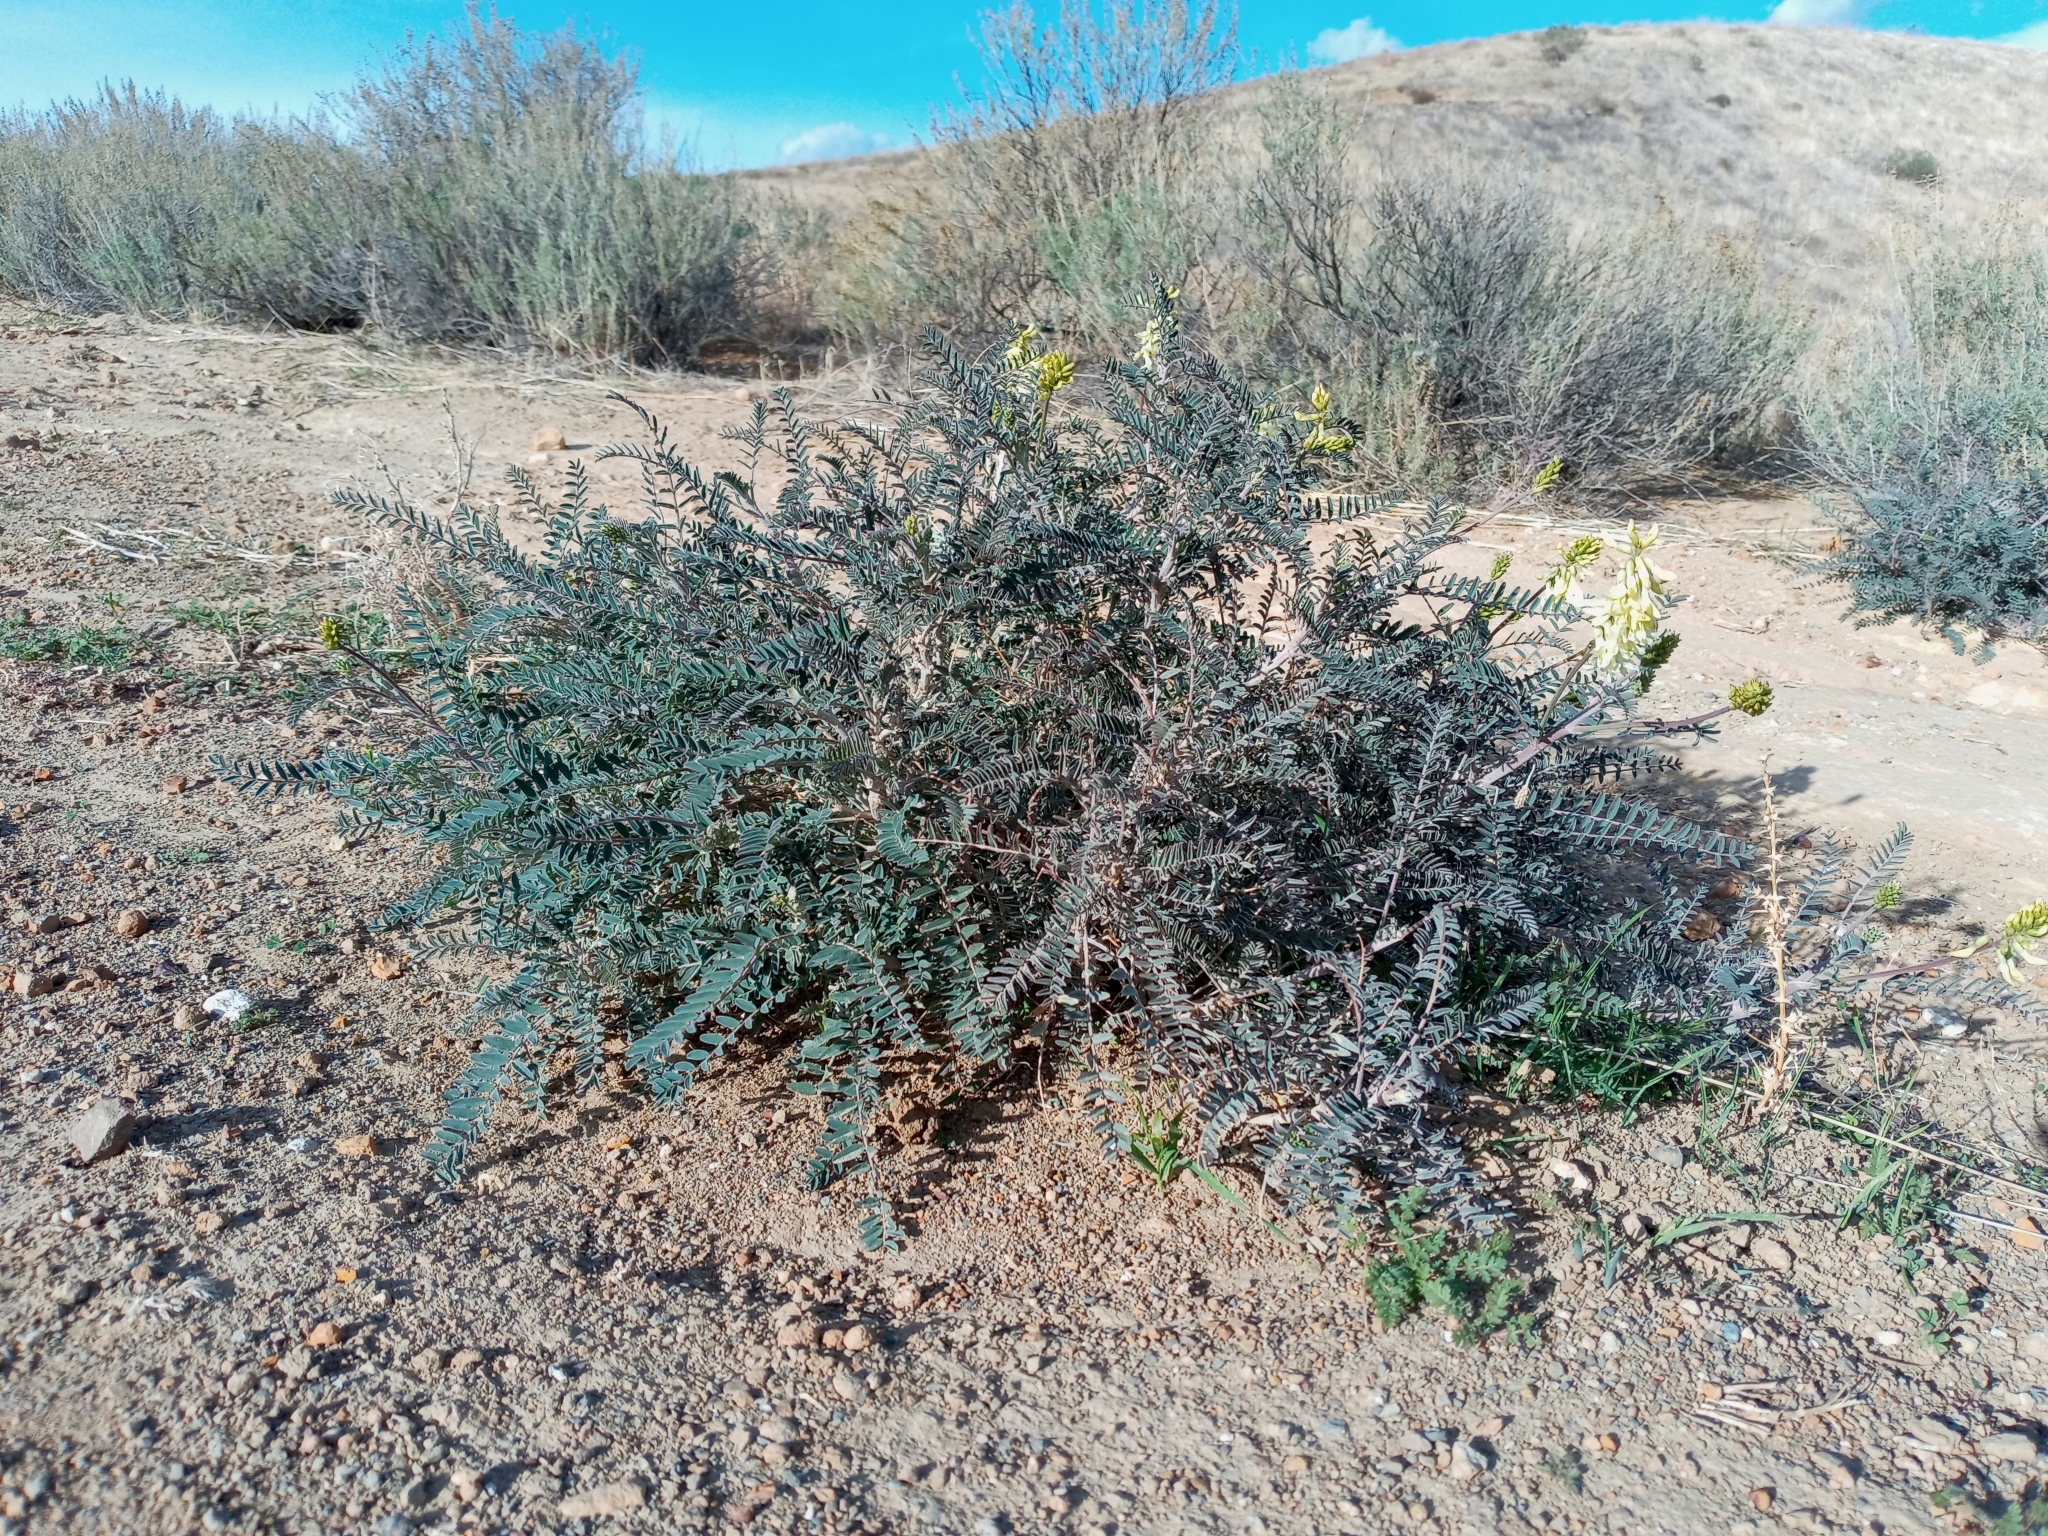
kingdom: Plantae
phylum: Tracheophyta
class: Magnoliopsida
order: Fabales
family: Fabaceae
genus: Astragalus
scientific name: Astragalus trichopodus
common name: Santa barbara milk-vetch
